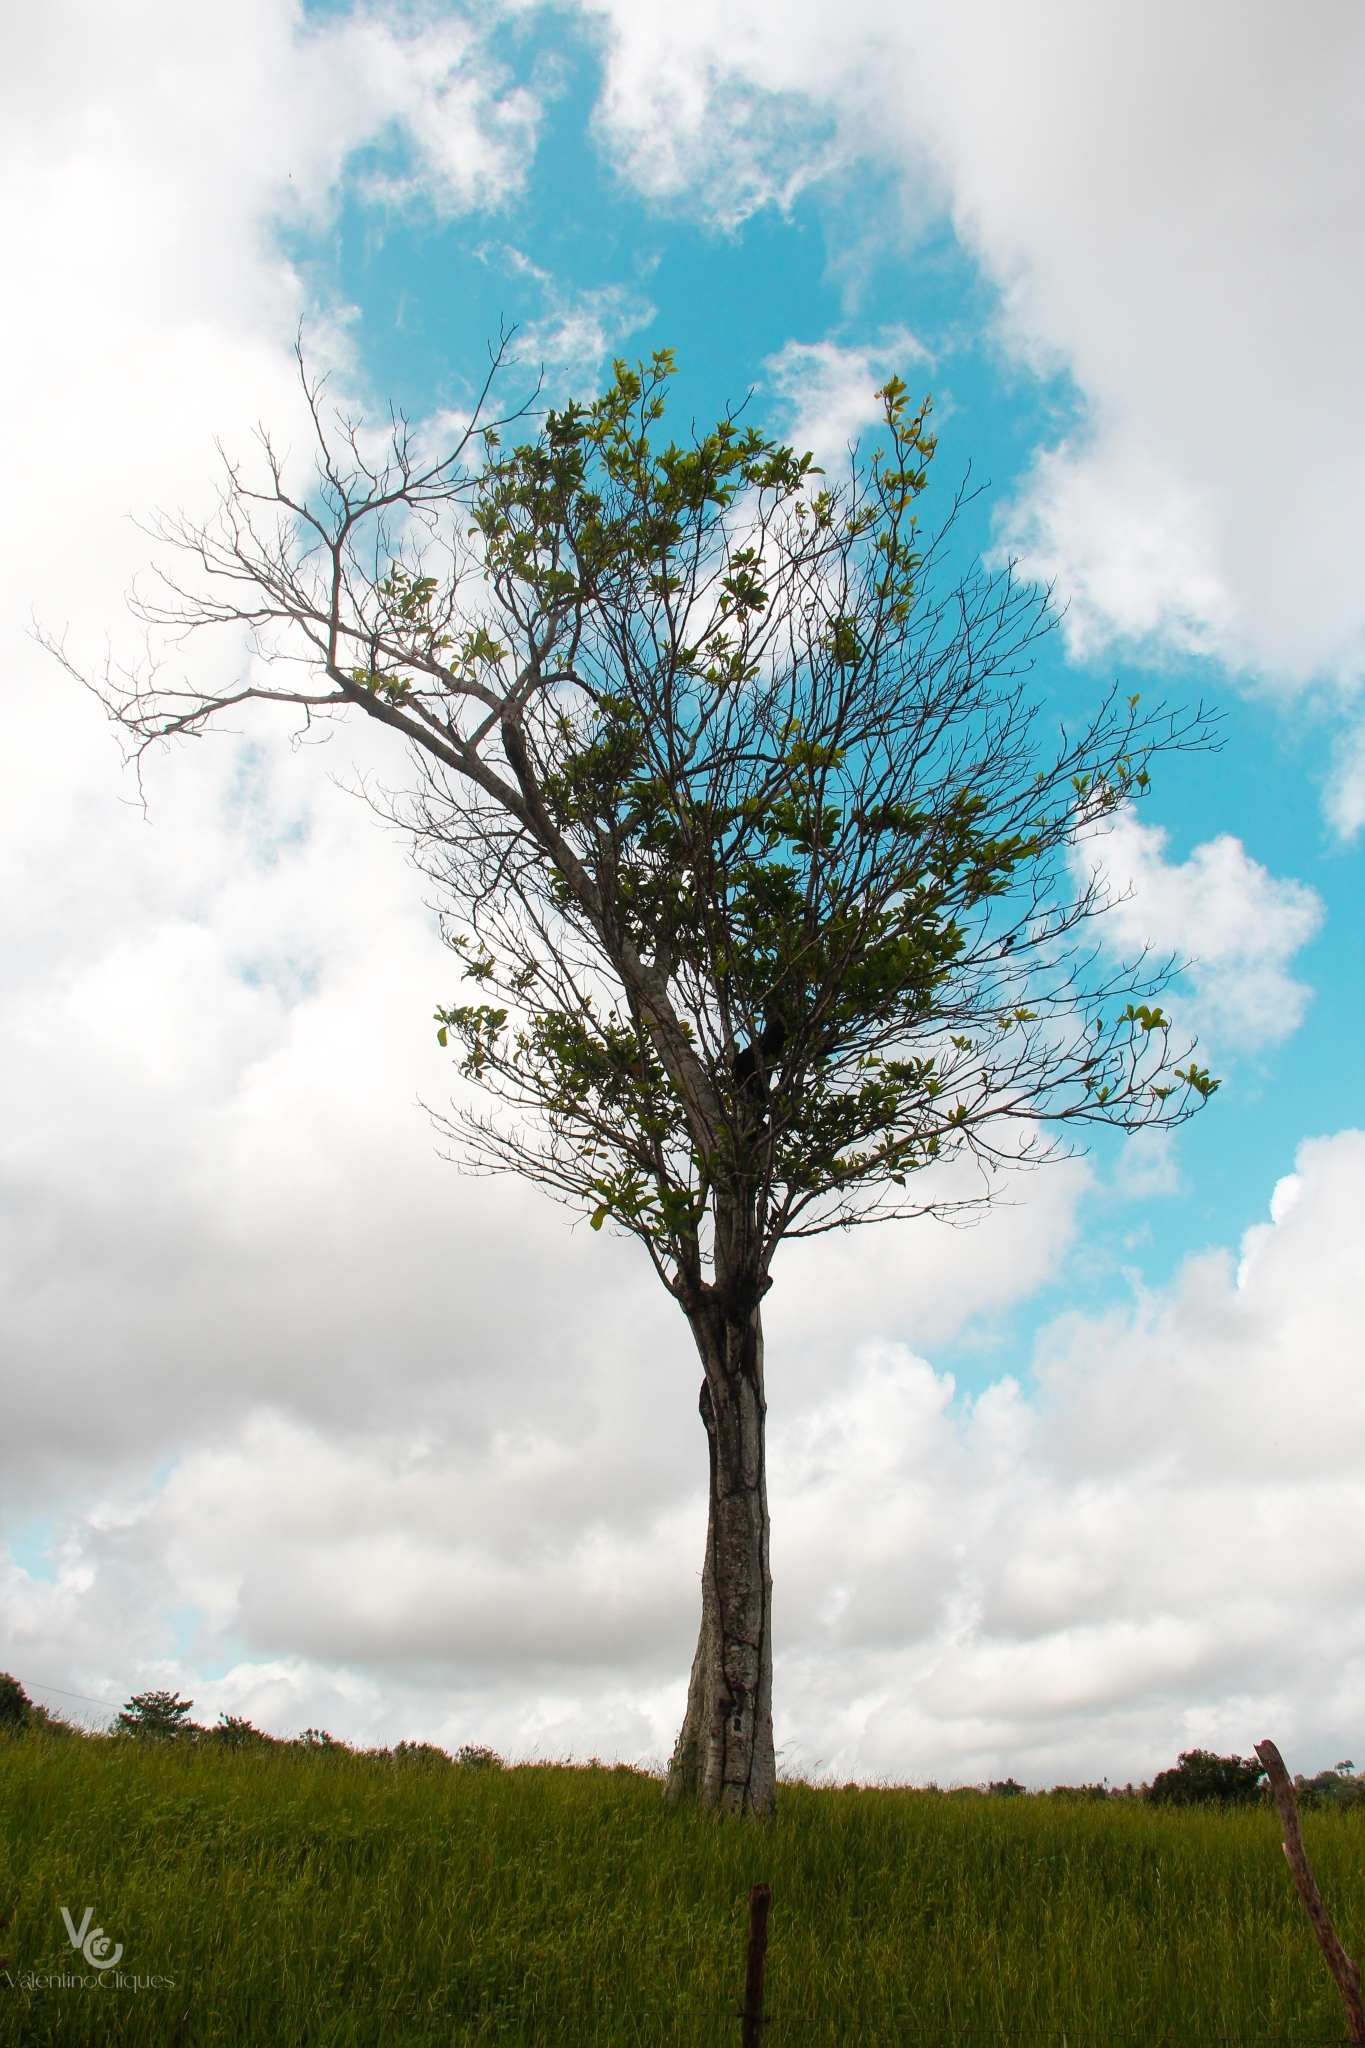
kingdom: Plantae
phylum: Tracheophyta
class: Magnoliopsida
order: Gentianales
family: Rubiaceae
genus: Genipa
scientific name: Genipa americana
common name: Genipap
